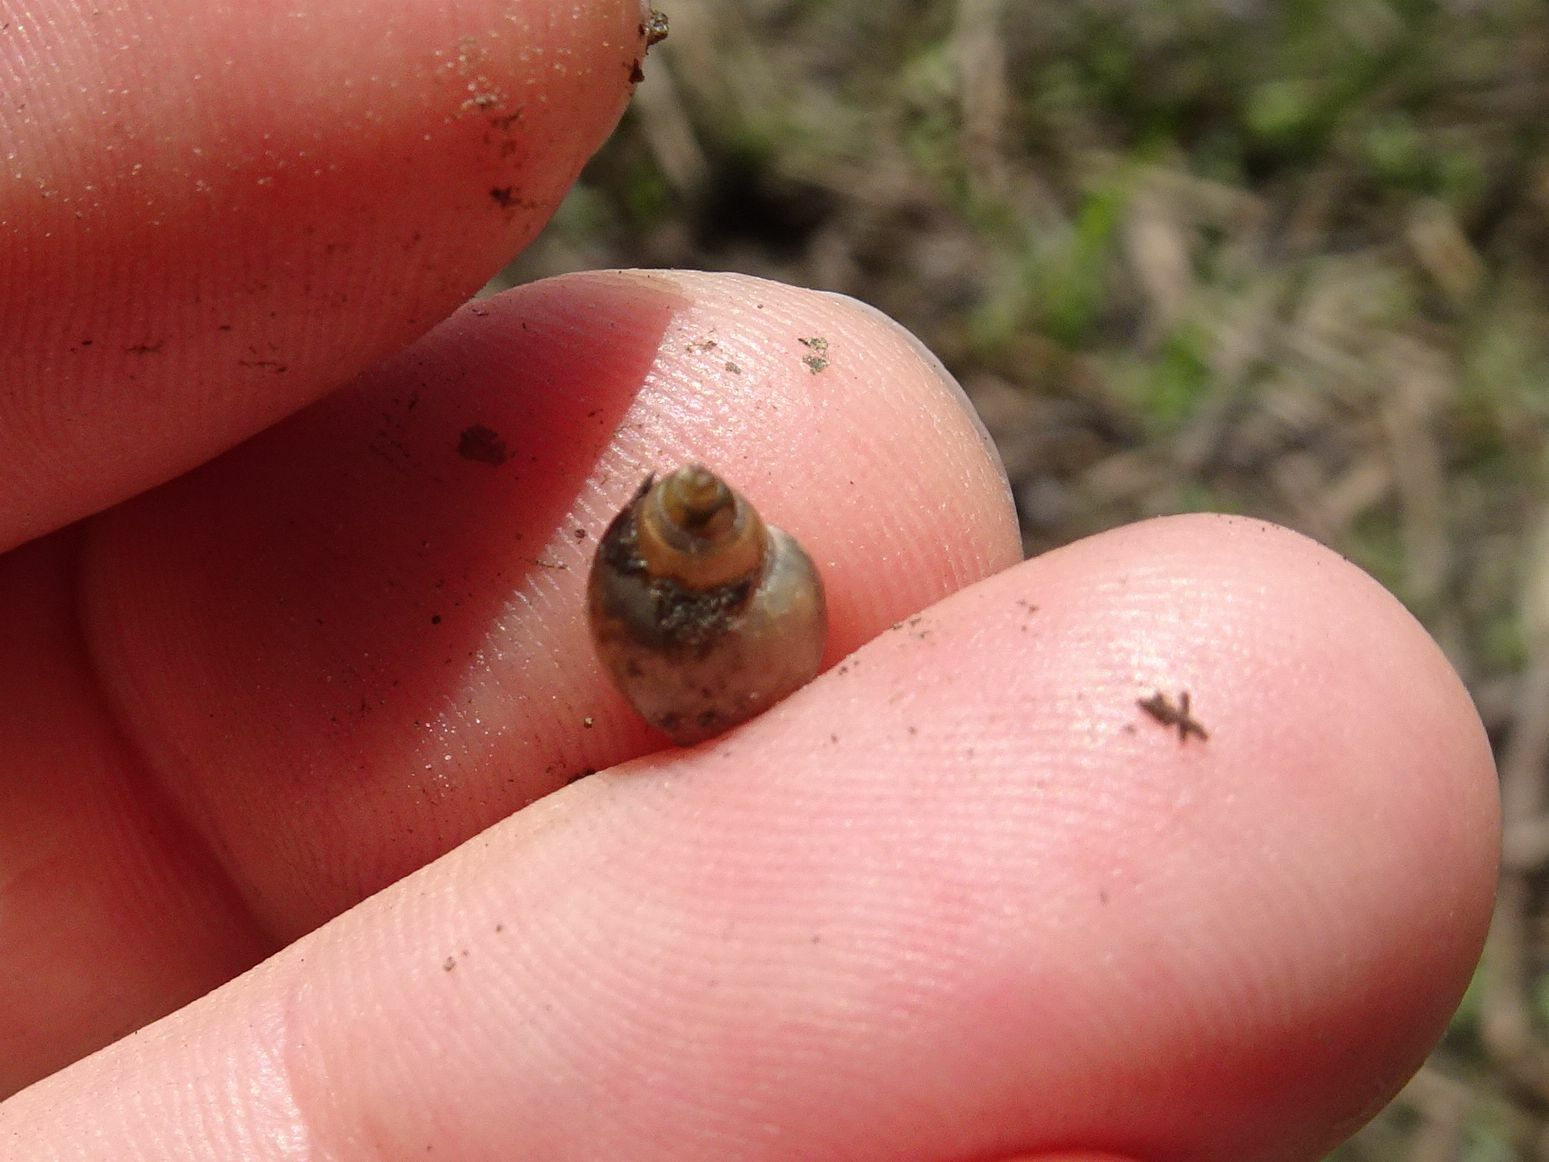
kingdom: Animalia
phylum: Mollusca
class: Gastropoda
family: Physidae
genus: Physella
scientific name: Physella acuta
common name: European physa
